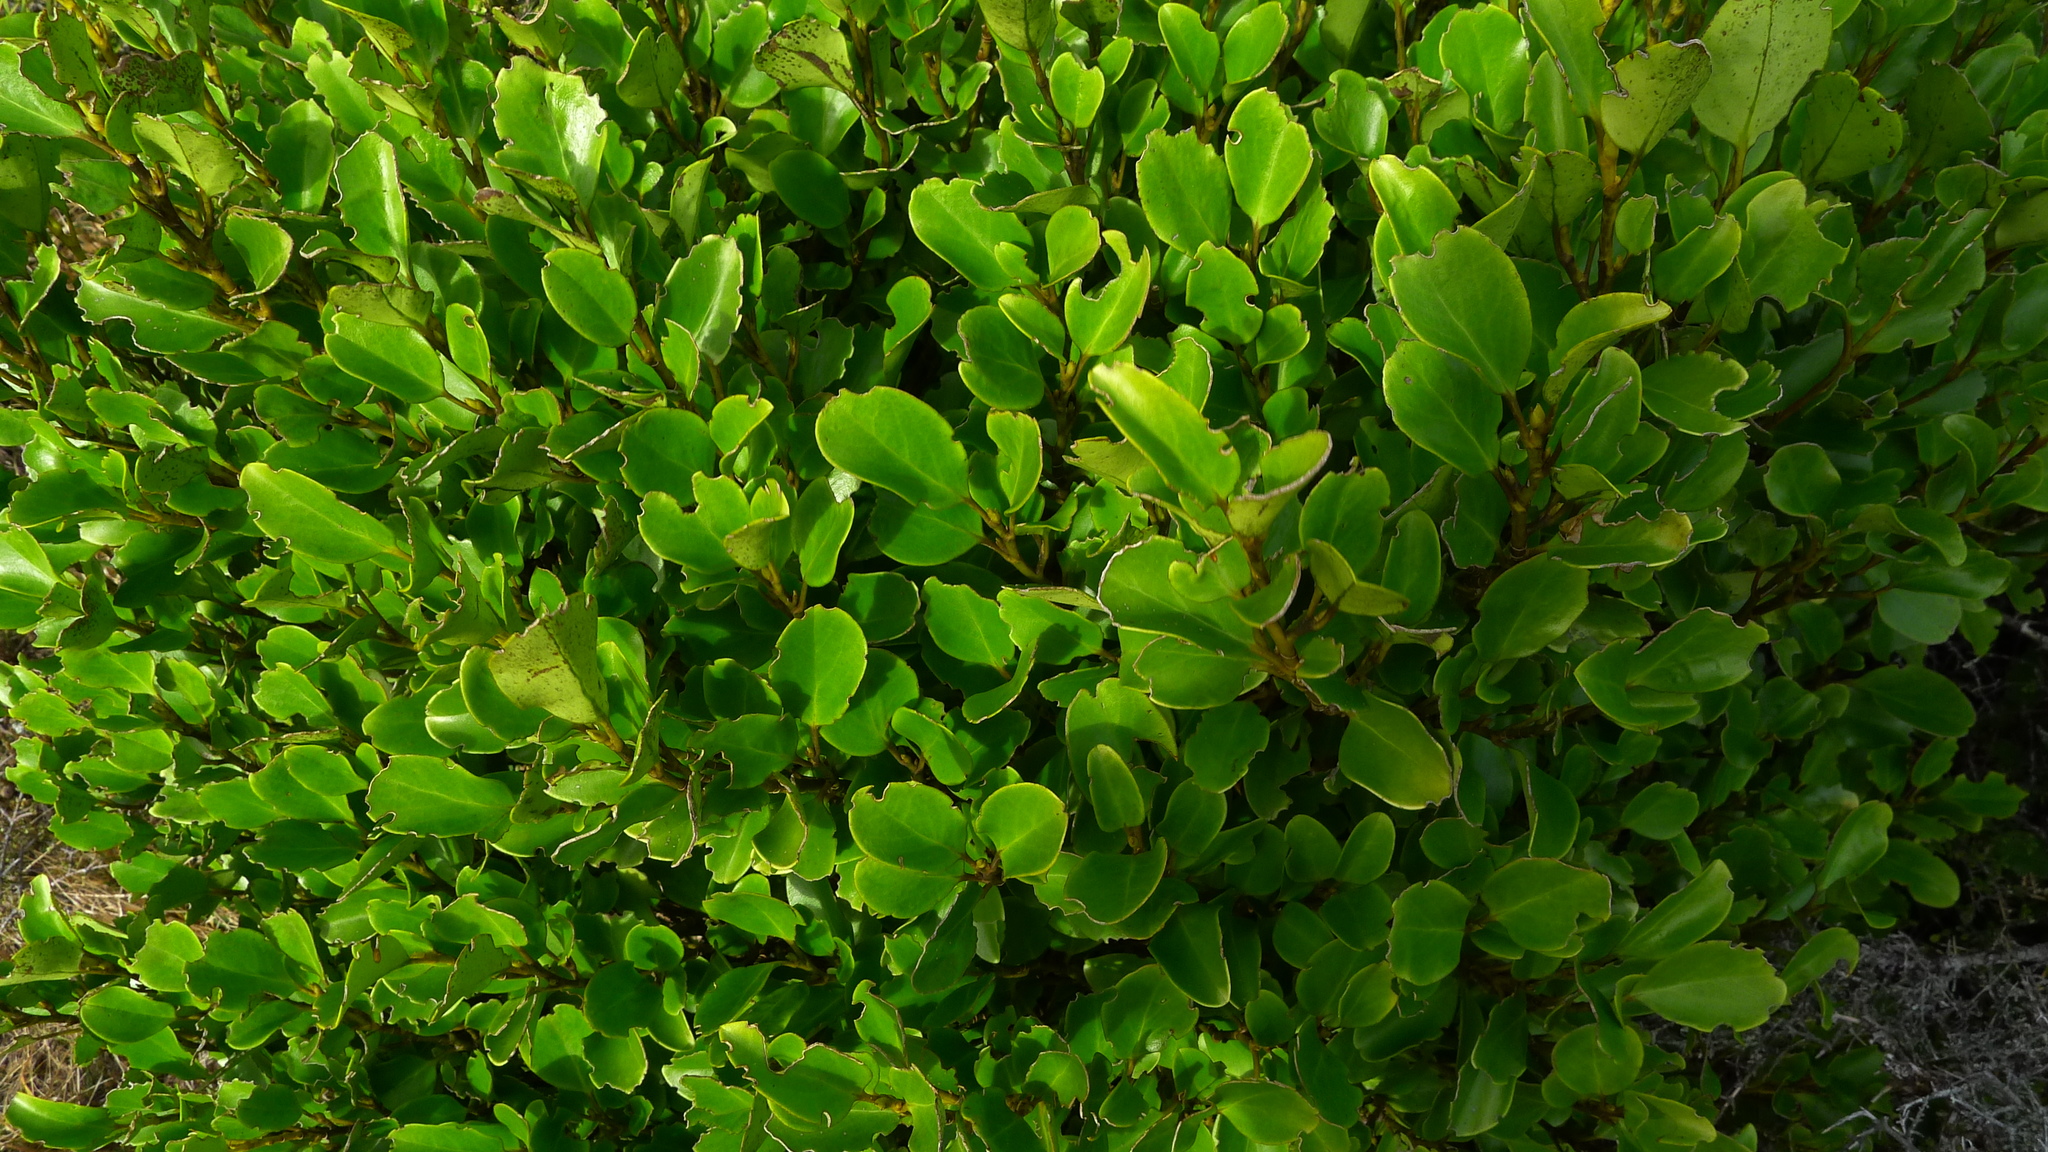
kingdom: Plantae
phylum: Tracheophyta
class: Magnoliopsida
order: Apiales
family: Griseliniaceae
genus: Griselinia
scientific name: Griselinia littoralis
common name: New zealand broadleaf
